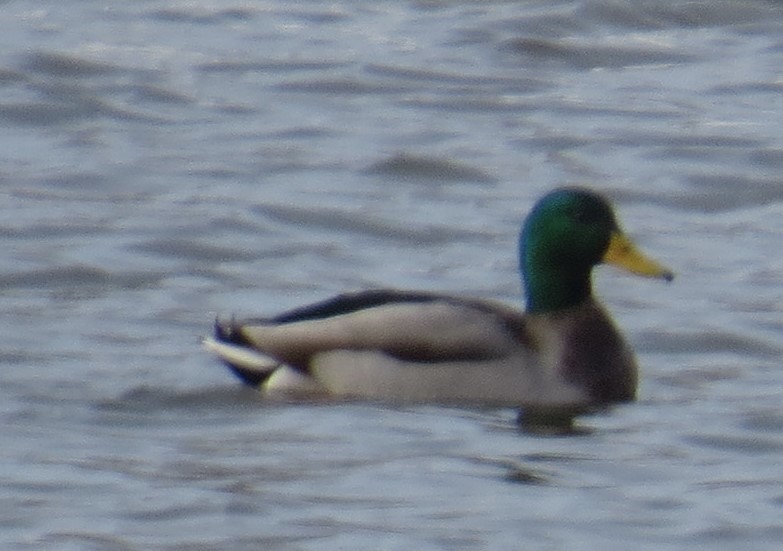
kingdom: Animalia
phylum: Chordata
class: Aves
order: Anseriformes
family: Anatidae
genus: Anas
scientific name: Anas platyrhynchos
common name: Mallard
